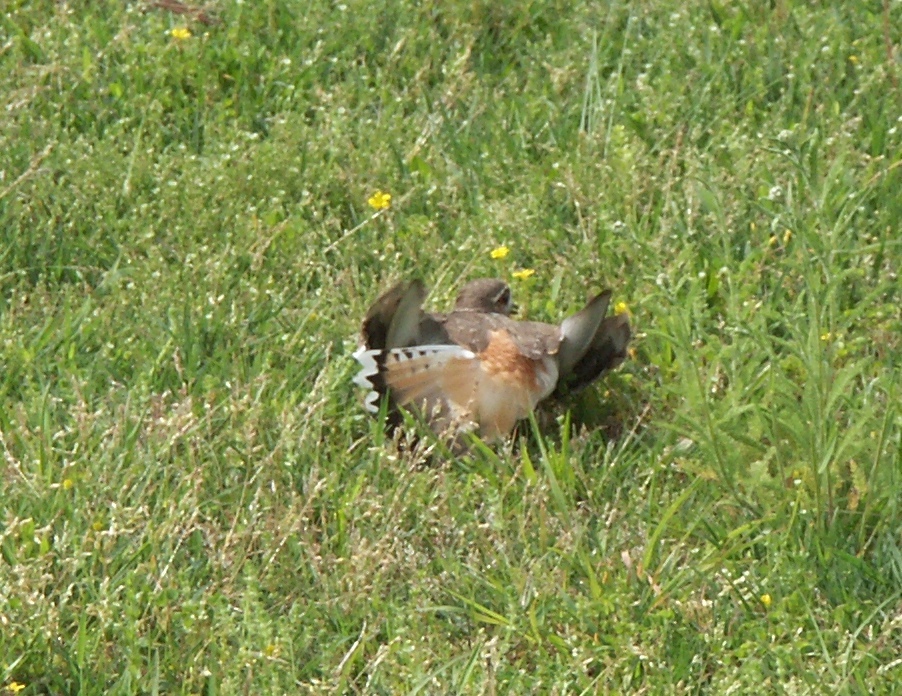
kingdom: Animalia
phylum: Chordata
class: Aves
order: Charadriiformes
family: Charadriidae
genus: Charadrius
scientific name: Charadrius vociferus
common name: Killdeer
